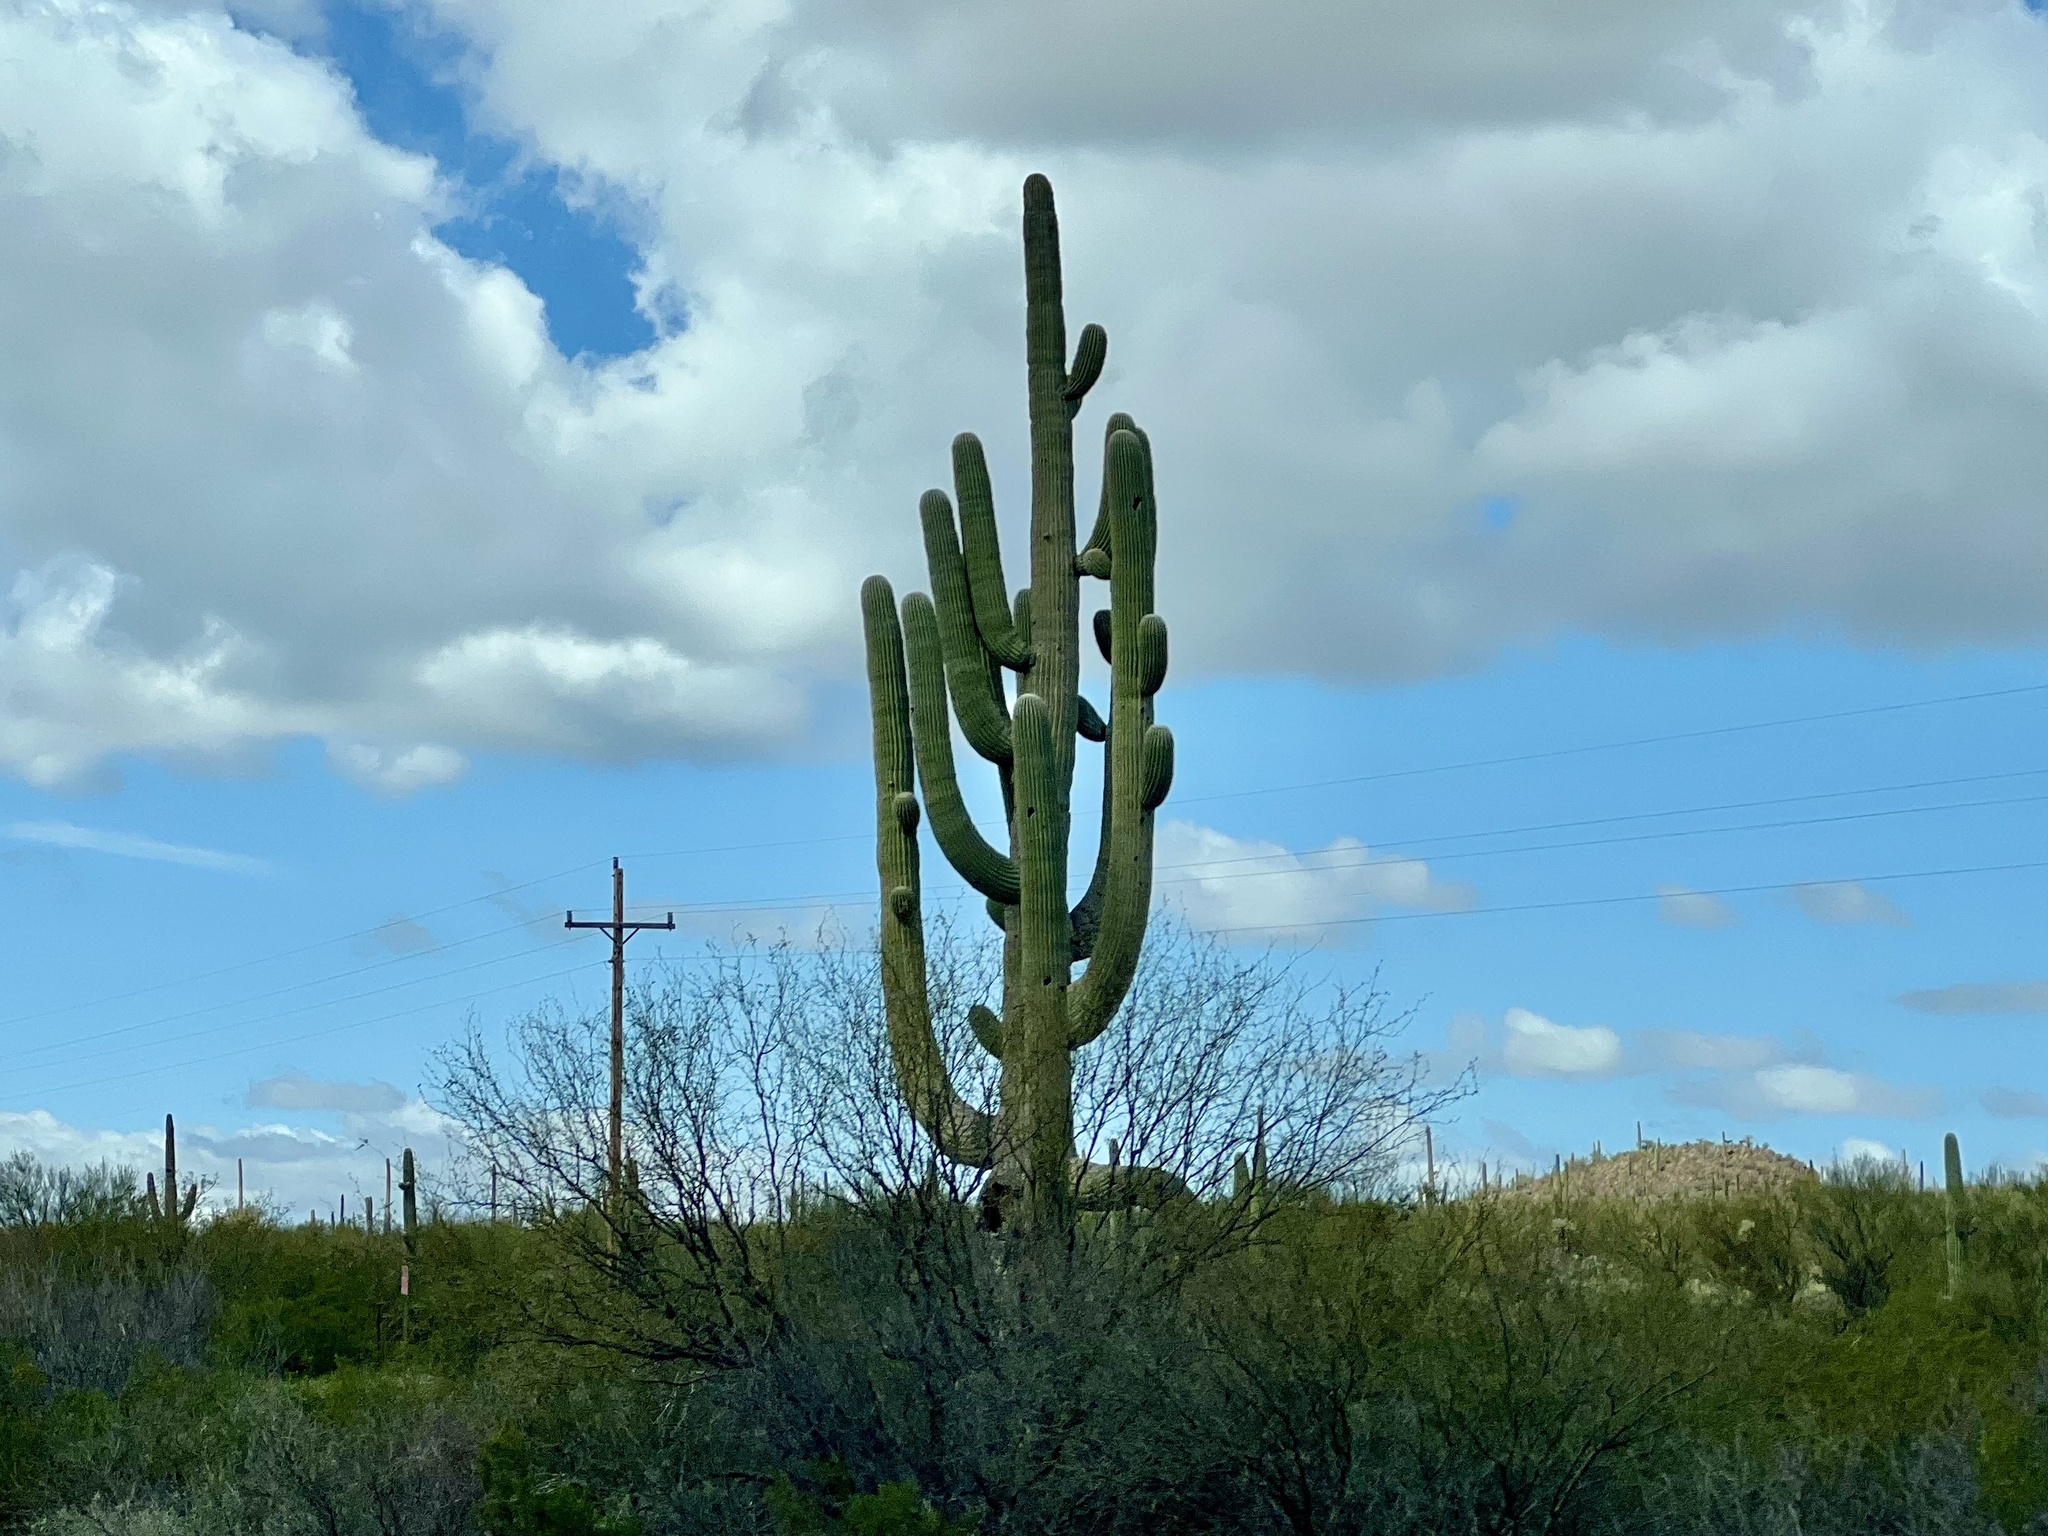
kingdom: Plantae
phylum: Tracheophyta
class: Magnoliopsida
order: Caryophyllales
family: Cactaceae
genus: Carnegiea
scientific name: Carnegiea gigantea
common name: Saguaro
